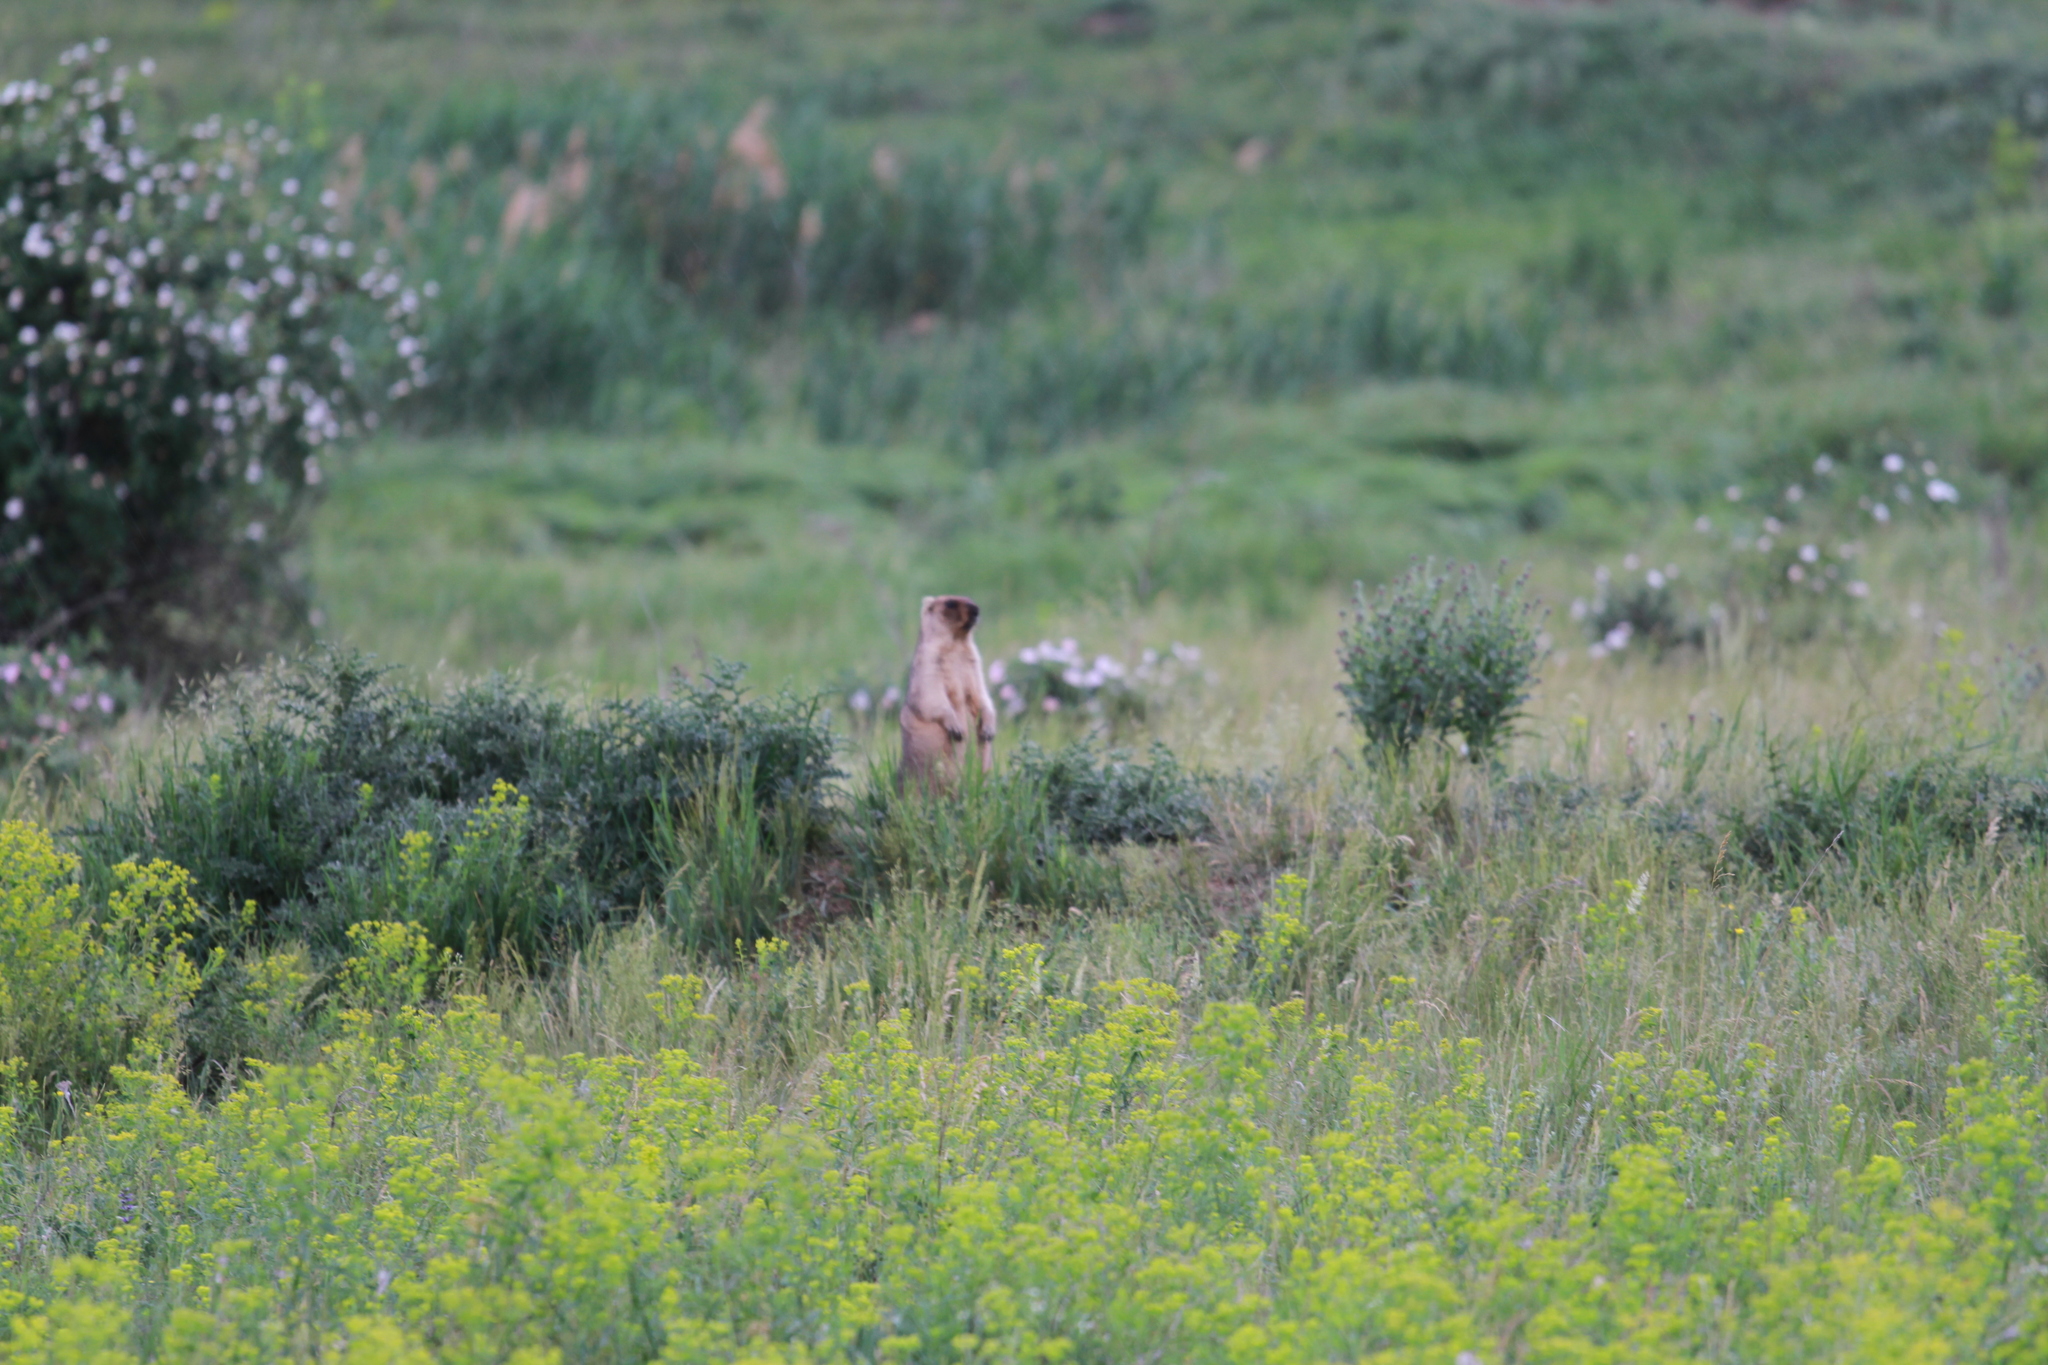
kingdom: Animalia
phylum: Chordata
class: Mammalia
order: Rodentia
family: Sciuridae
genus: Marmota
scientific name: Marmota bobak
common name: Bobak marmot
